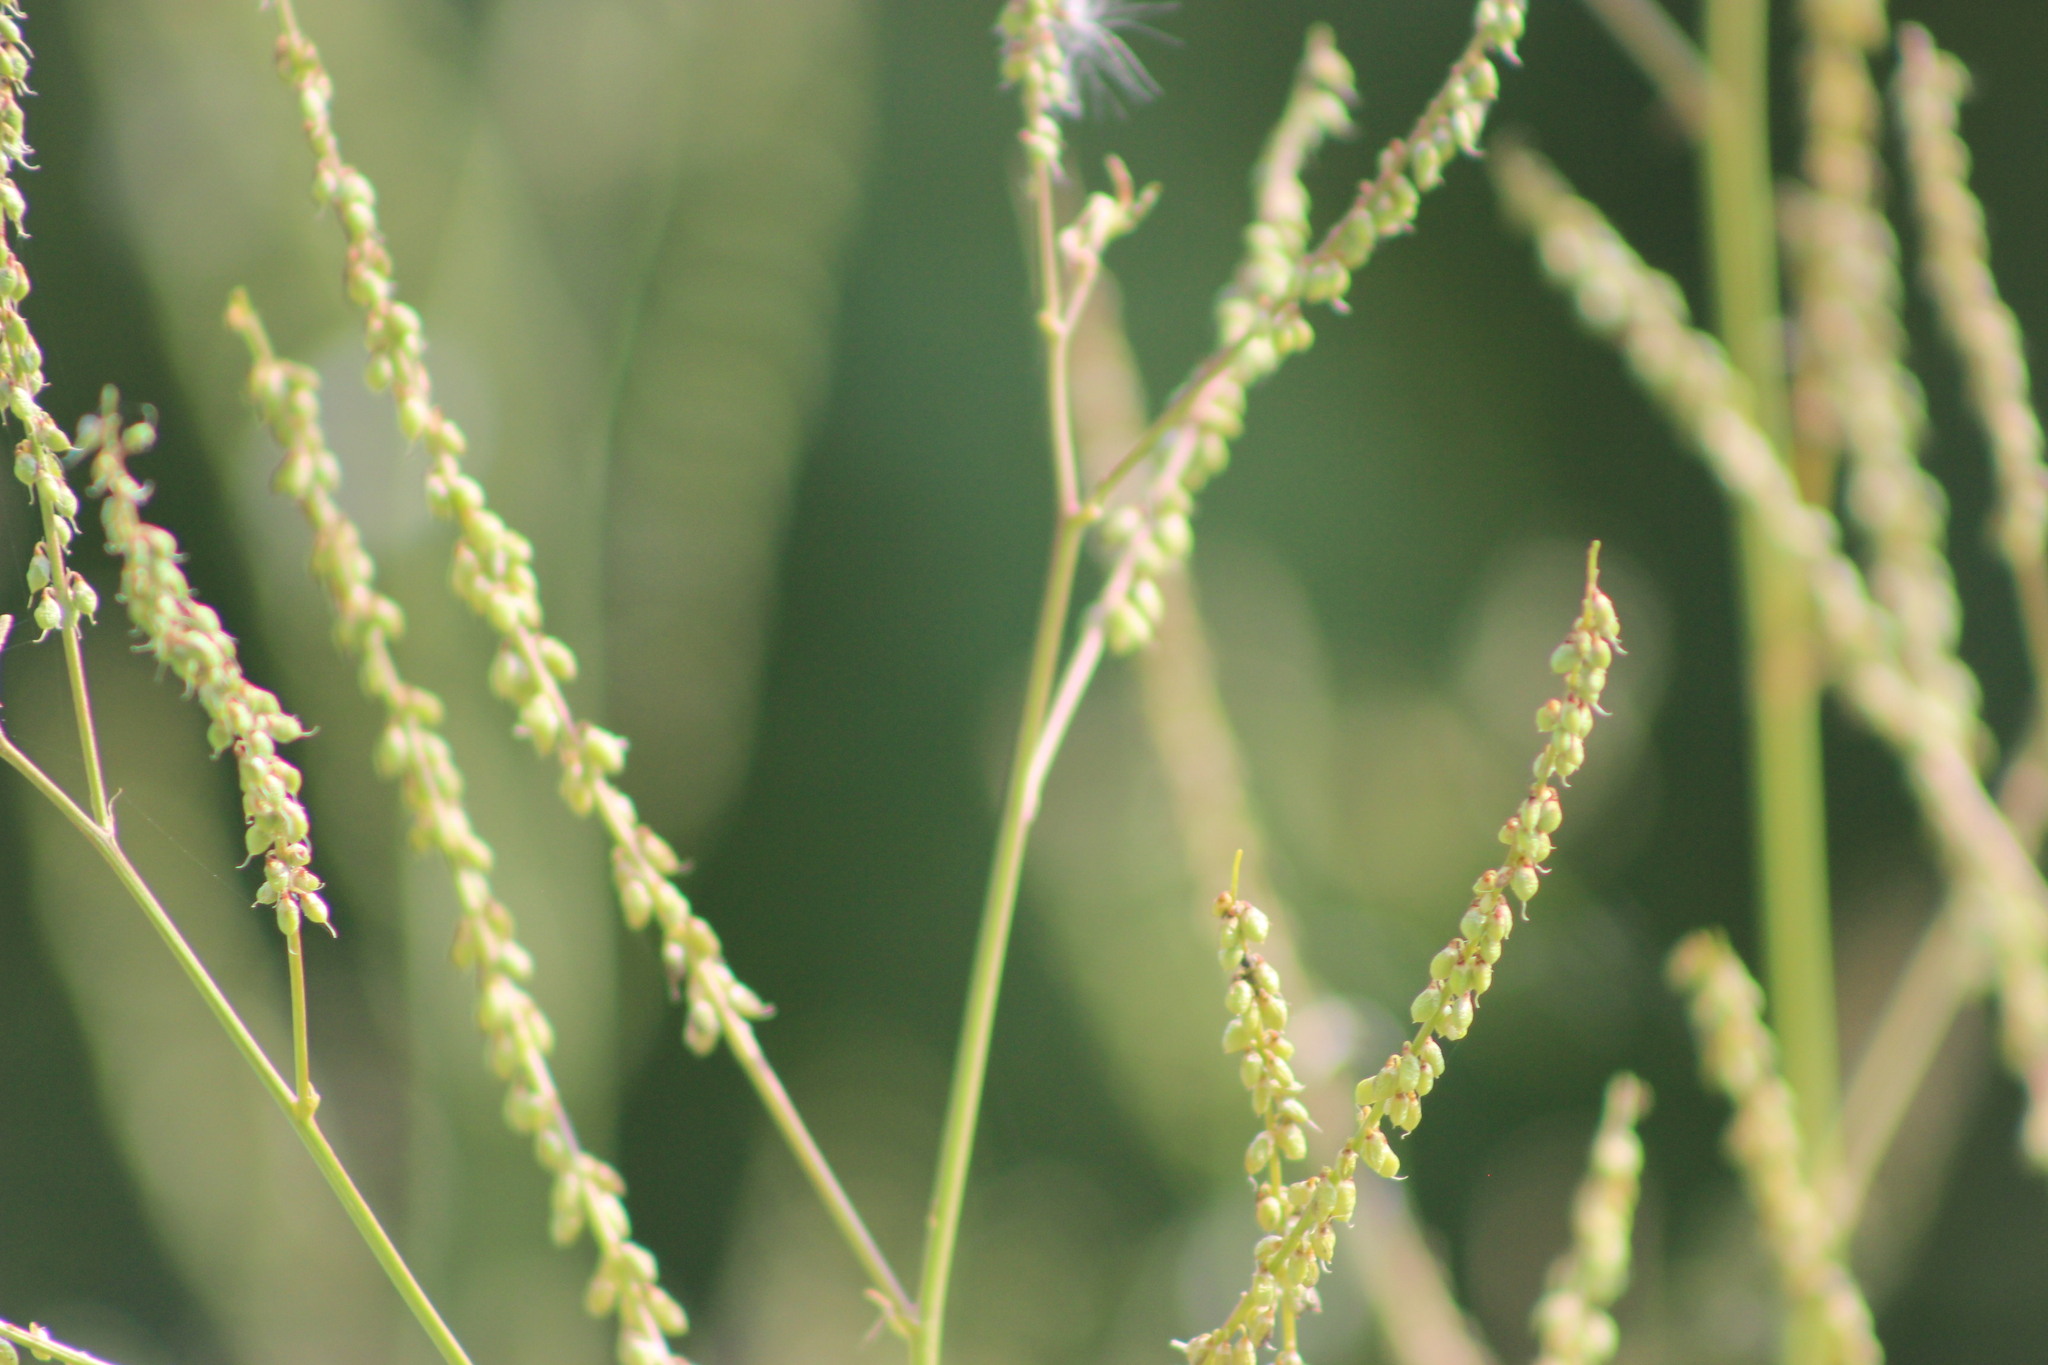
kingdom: Plantae
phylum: Tracheophyta
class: Magnoliopsida
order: Fabales
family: Fabaceae
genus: Melilotus
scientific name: Melilotus albus
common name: White melilot
